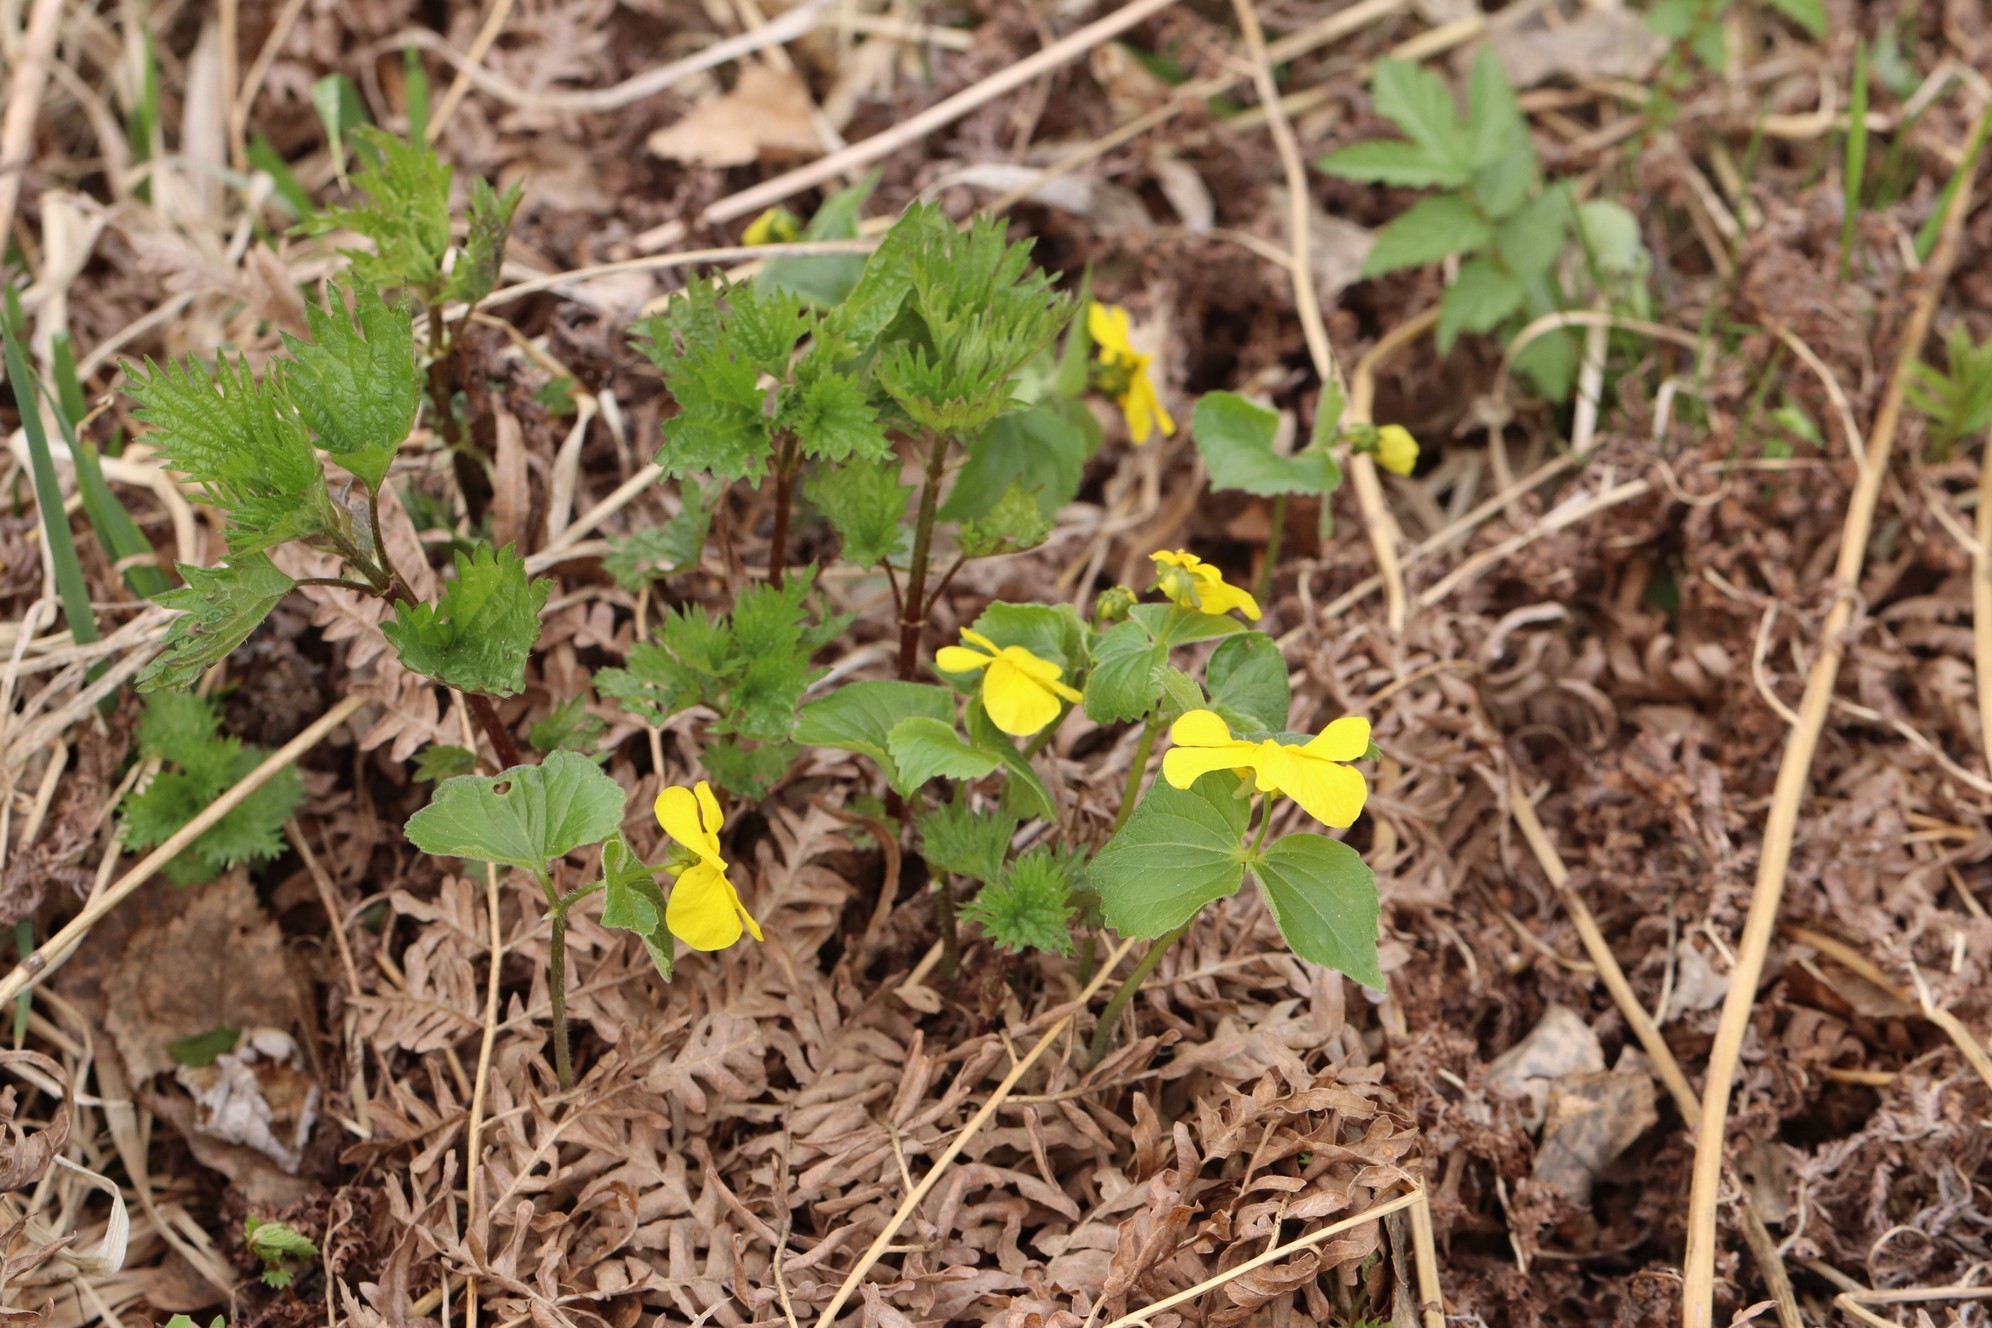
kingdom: Plantae
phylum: Tracheophyta
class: Magnoliopsida
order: Malpighiales
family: Violaceae
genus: Viola
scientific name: Viola uniflora
